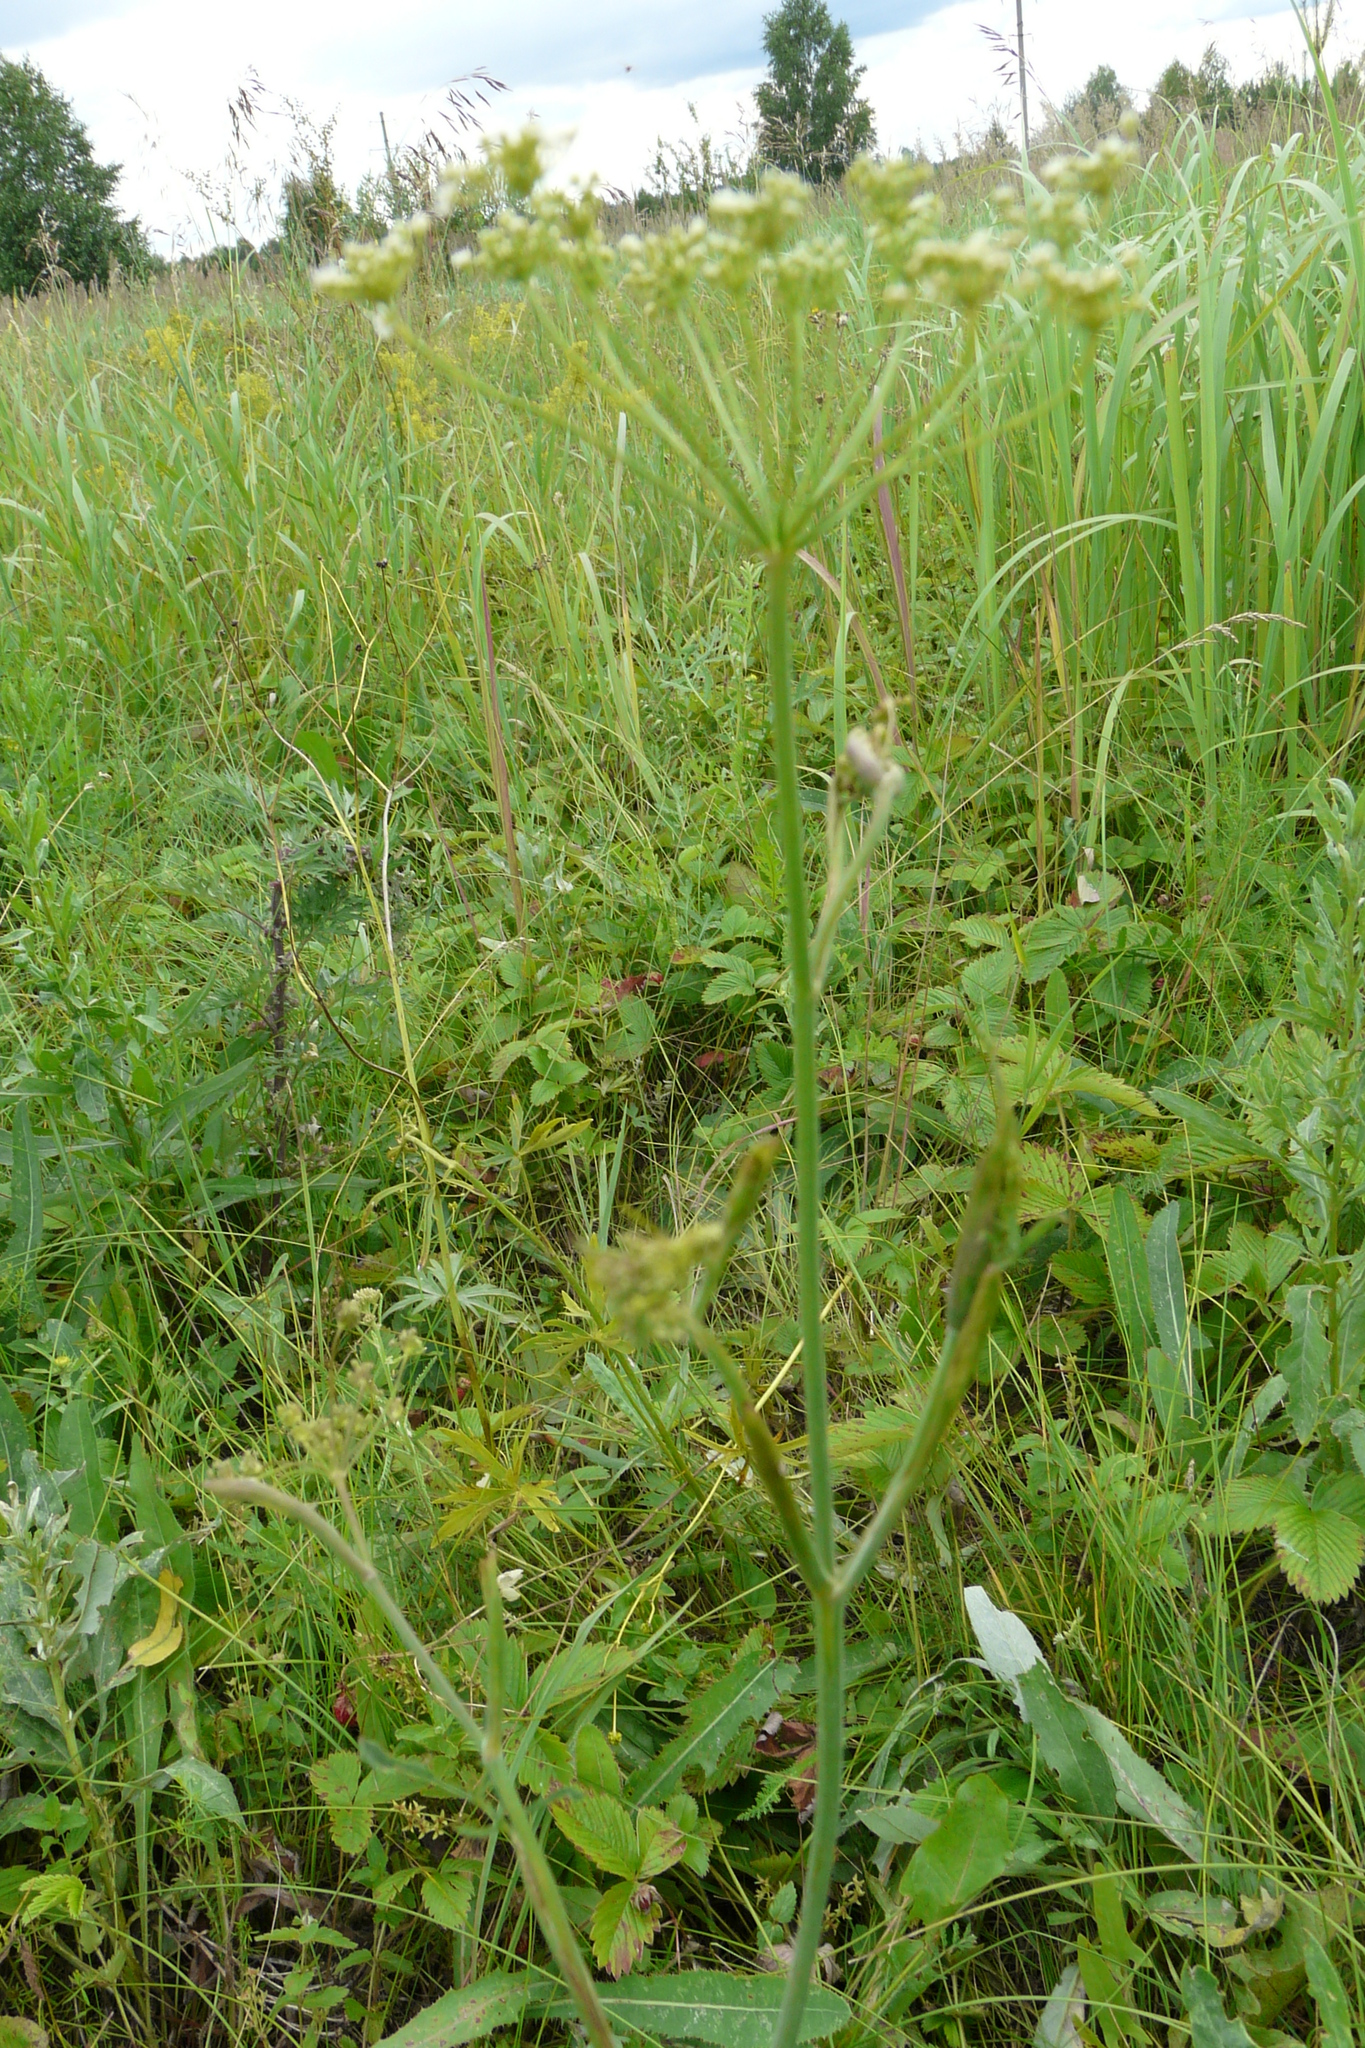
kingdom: Plantae
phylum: Tracheophyta
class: Magnoliopsida
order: Apiales
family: Apiaceae
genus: Pimpinella
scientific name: Pimpinella saxifraga
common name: Burnet-saxifrage
